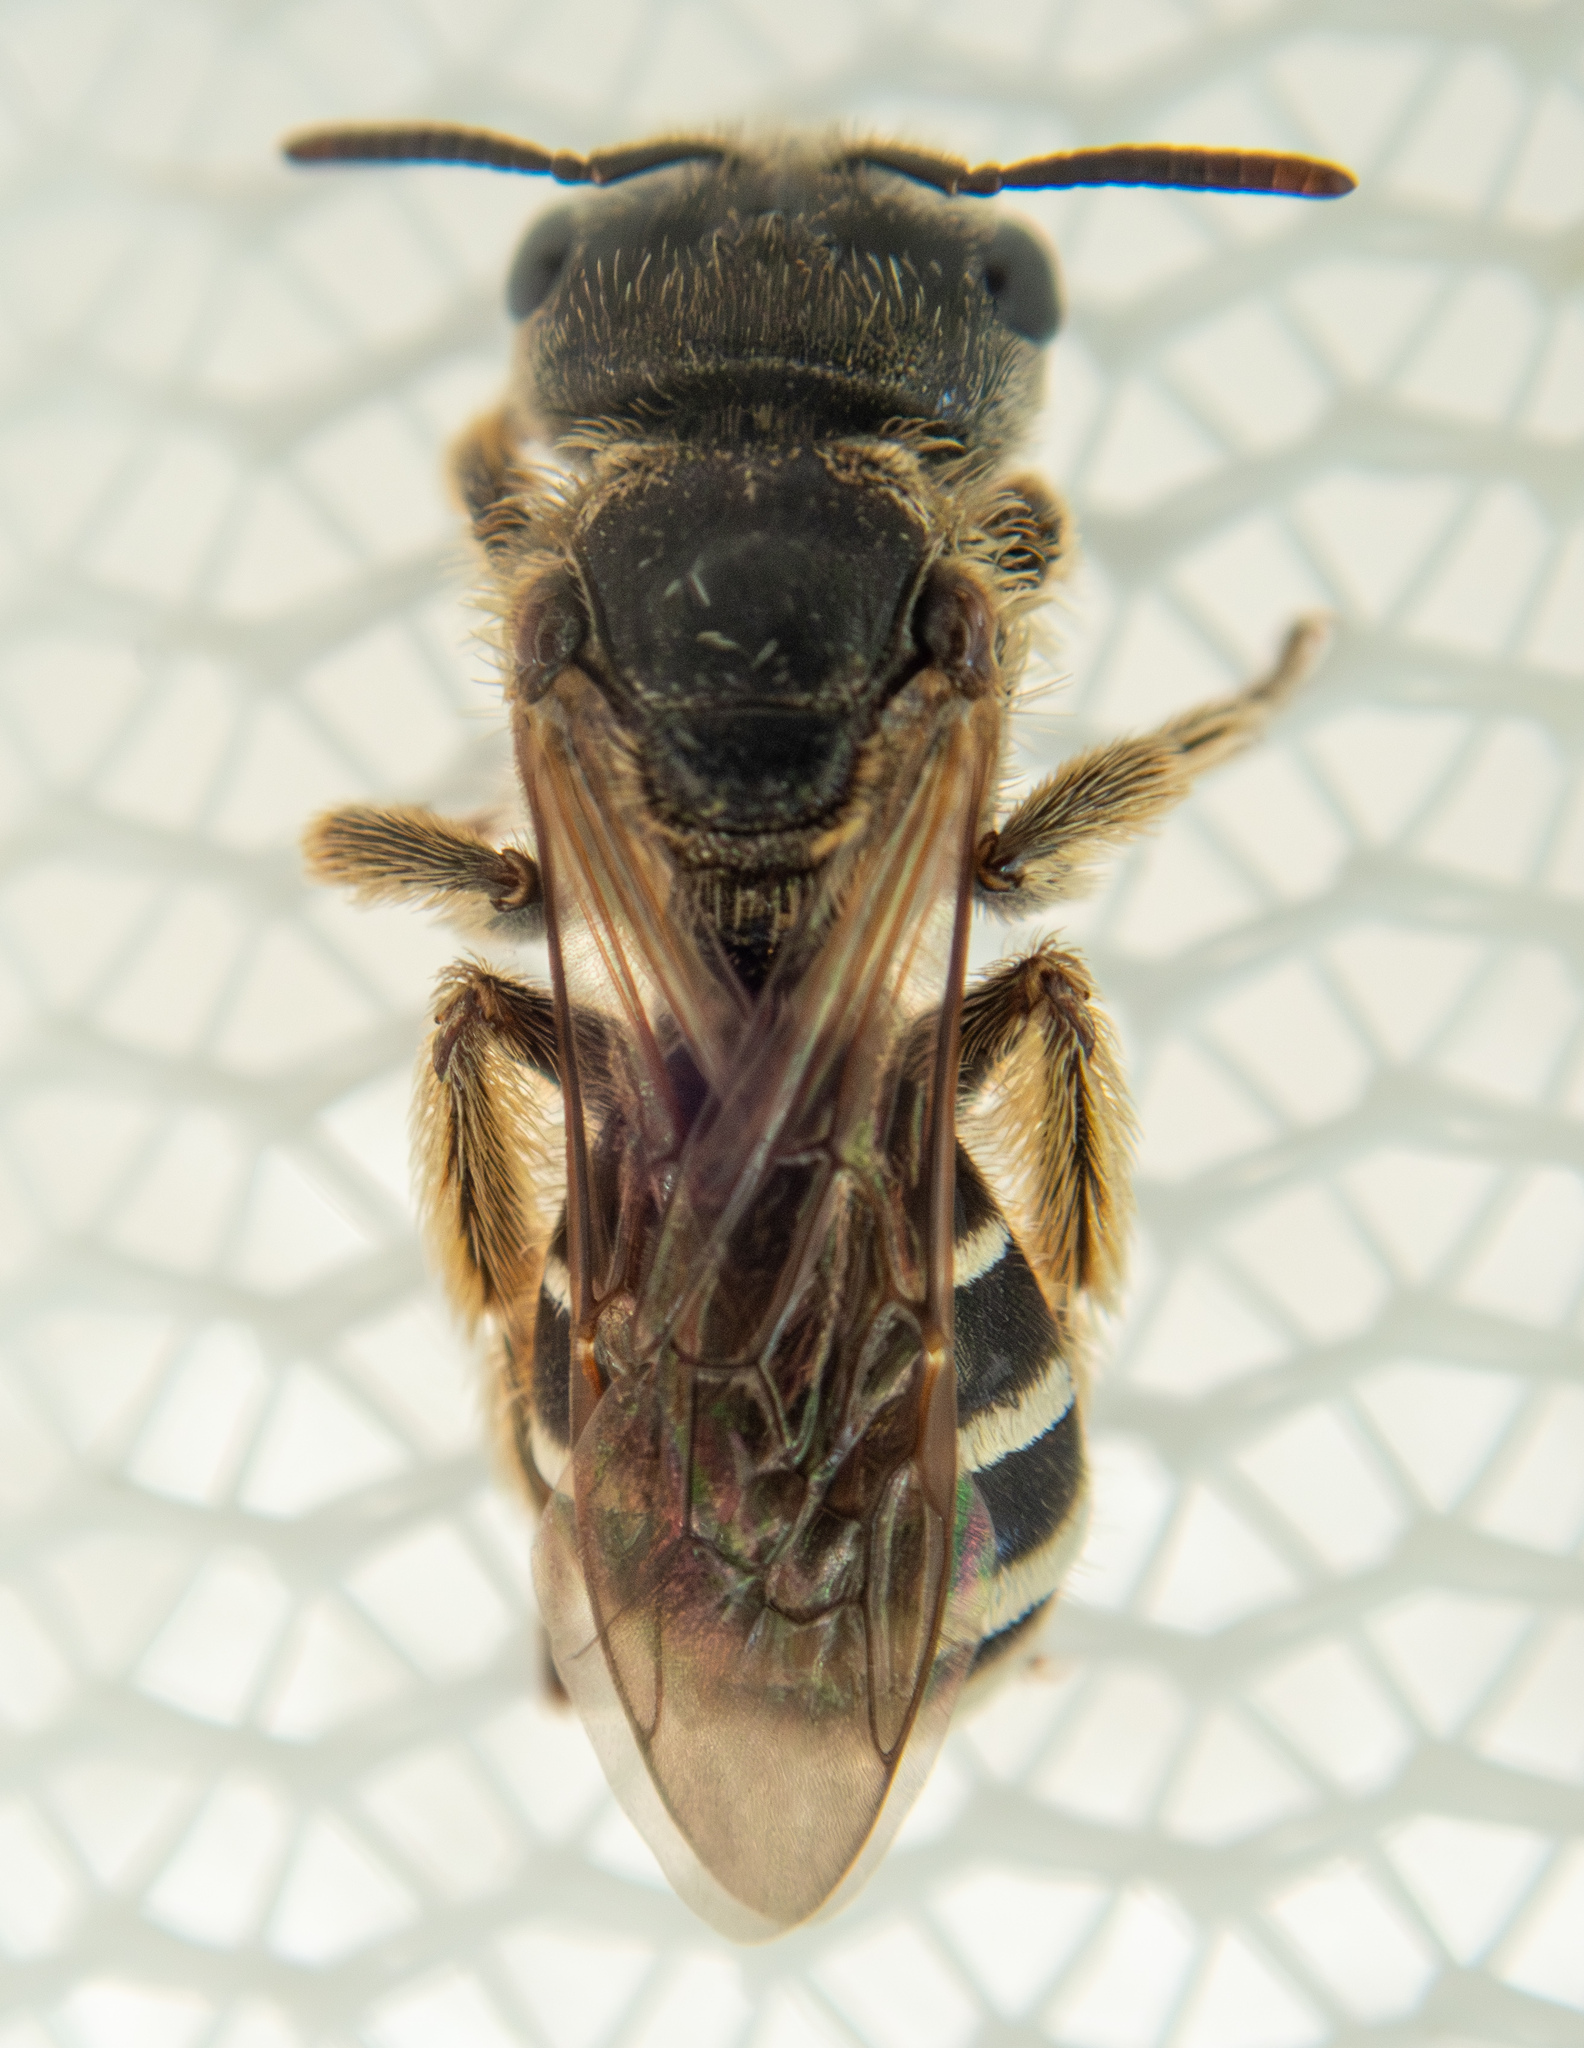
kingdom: Animalia
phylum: Arthropoda
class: Insecta
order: Hymenoptera
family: Halictidae
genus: Halictus
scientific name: Halictus ligatus
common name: Ligated furrow bee
